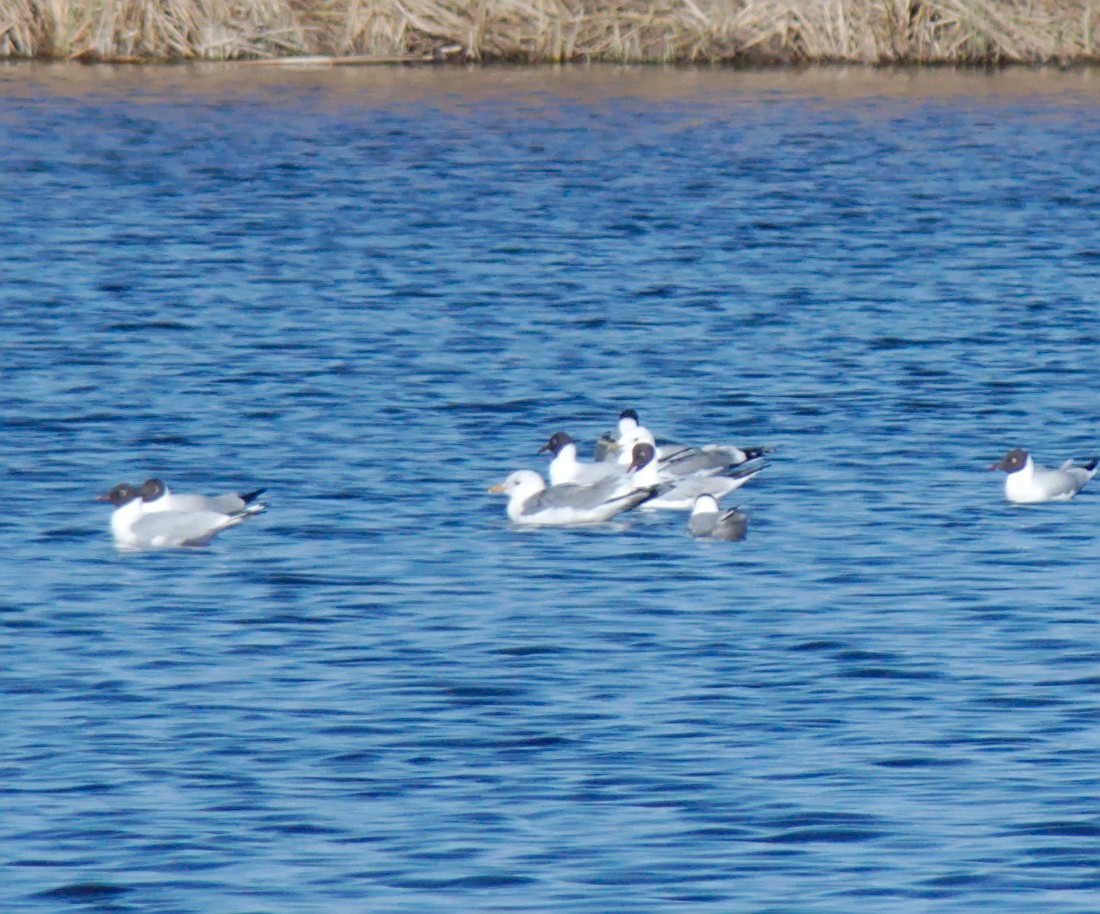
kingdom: Animalia
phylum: Chordata
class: Aves
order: Charadriiformes
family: Laridae
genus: Chroicocephalus
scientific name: Chroicocephalus ridibundus
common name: Black-headed gull
